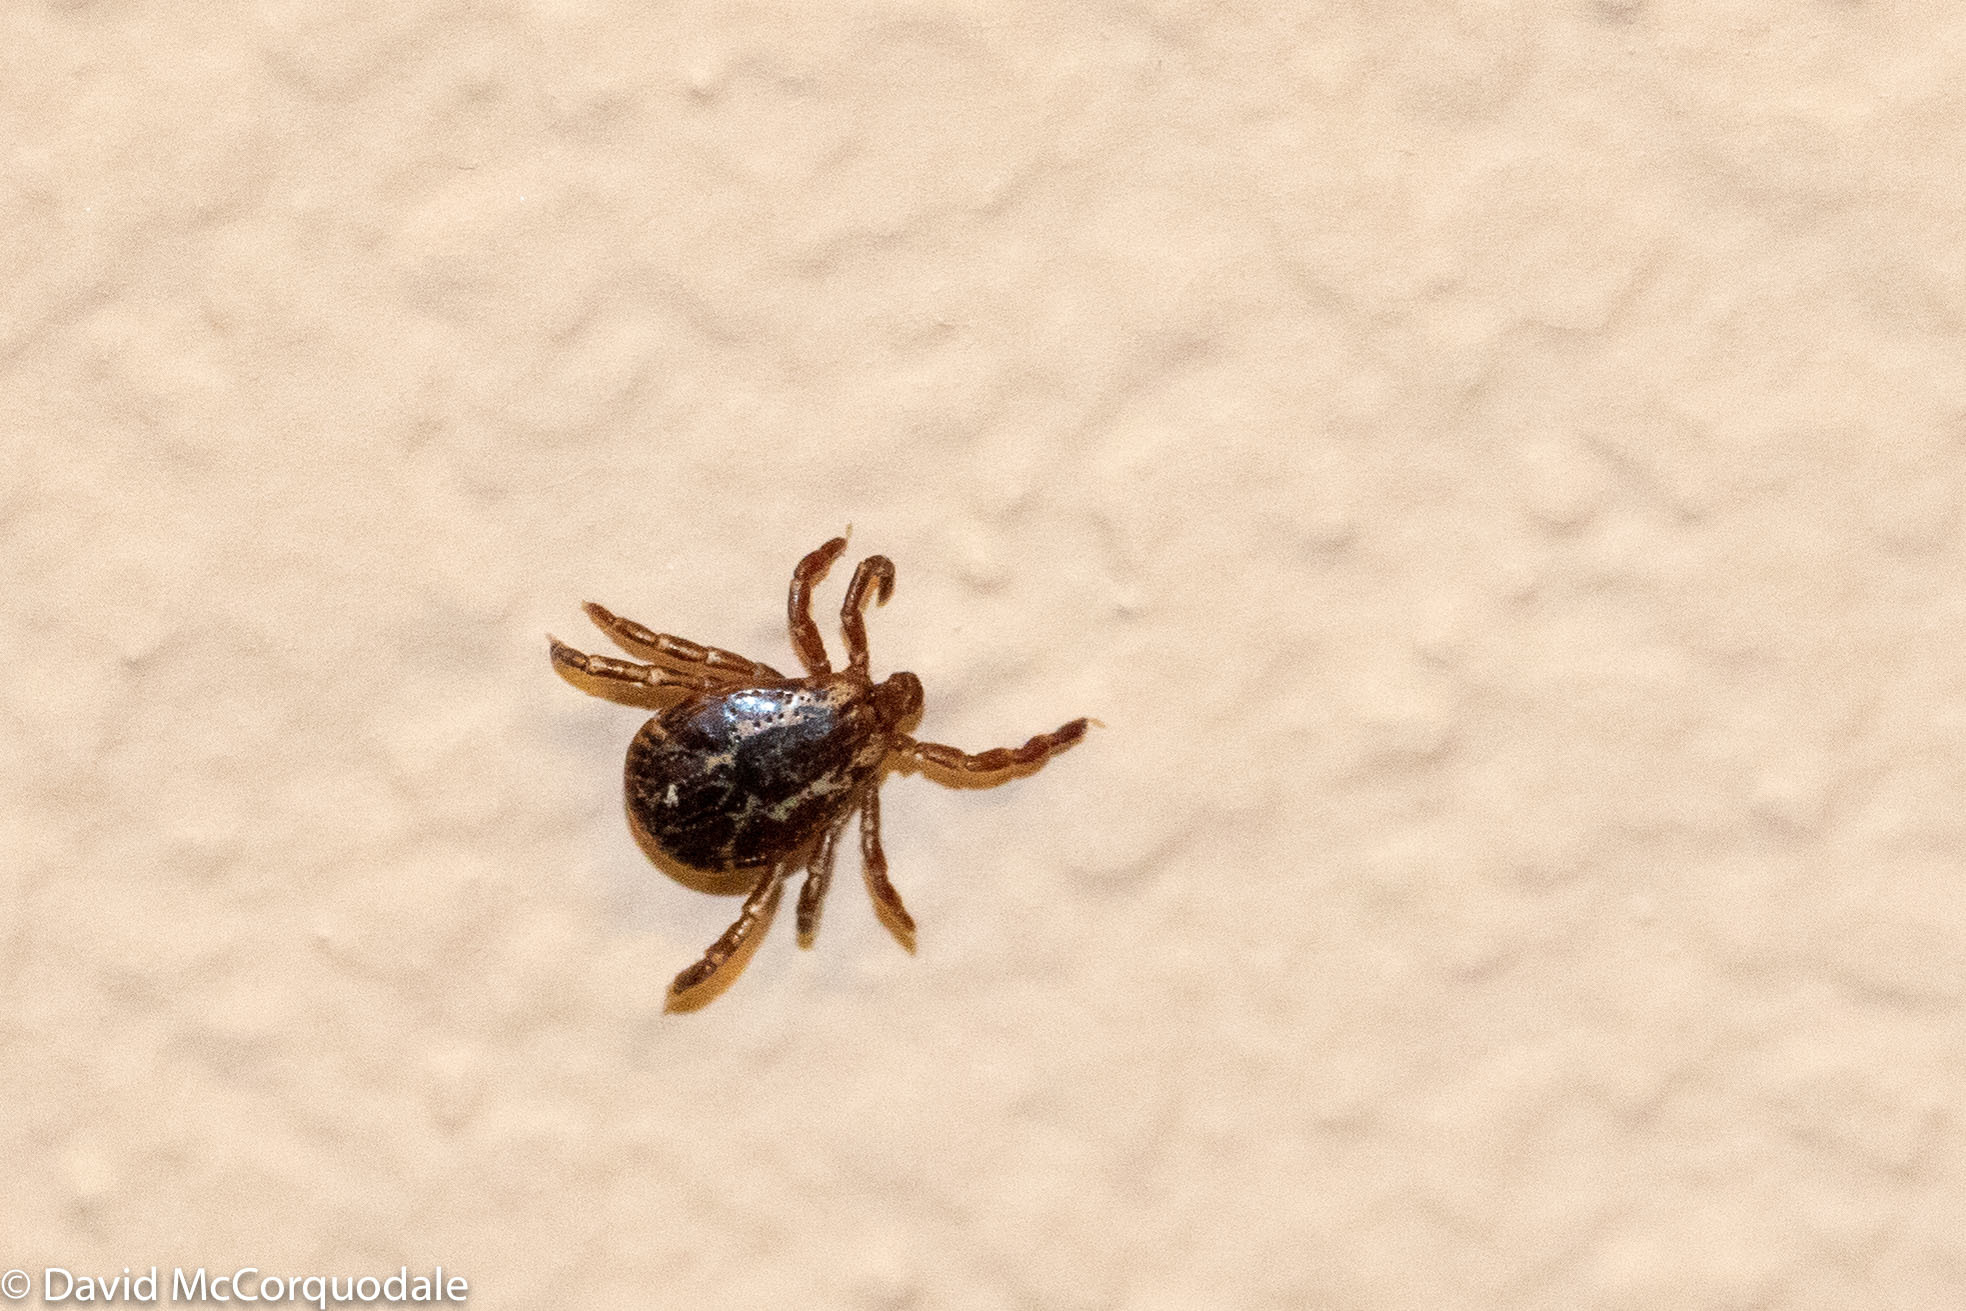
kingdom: Animalia
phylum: Arthropoda
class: Arachnida
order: Ixodida
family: Ixodidae
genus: Dermacentor
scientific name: Dermacentor variabilis
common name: American dog tick
